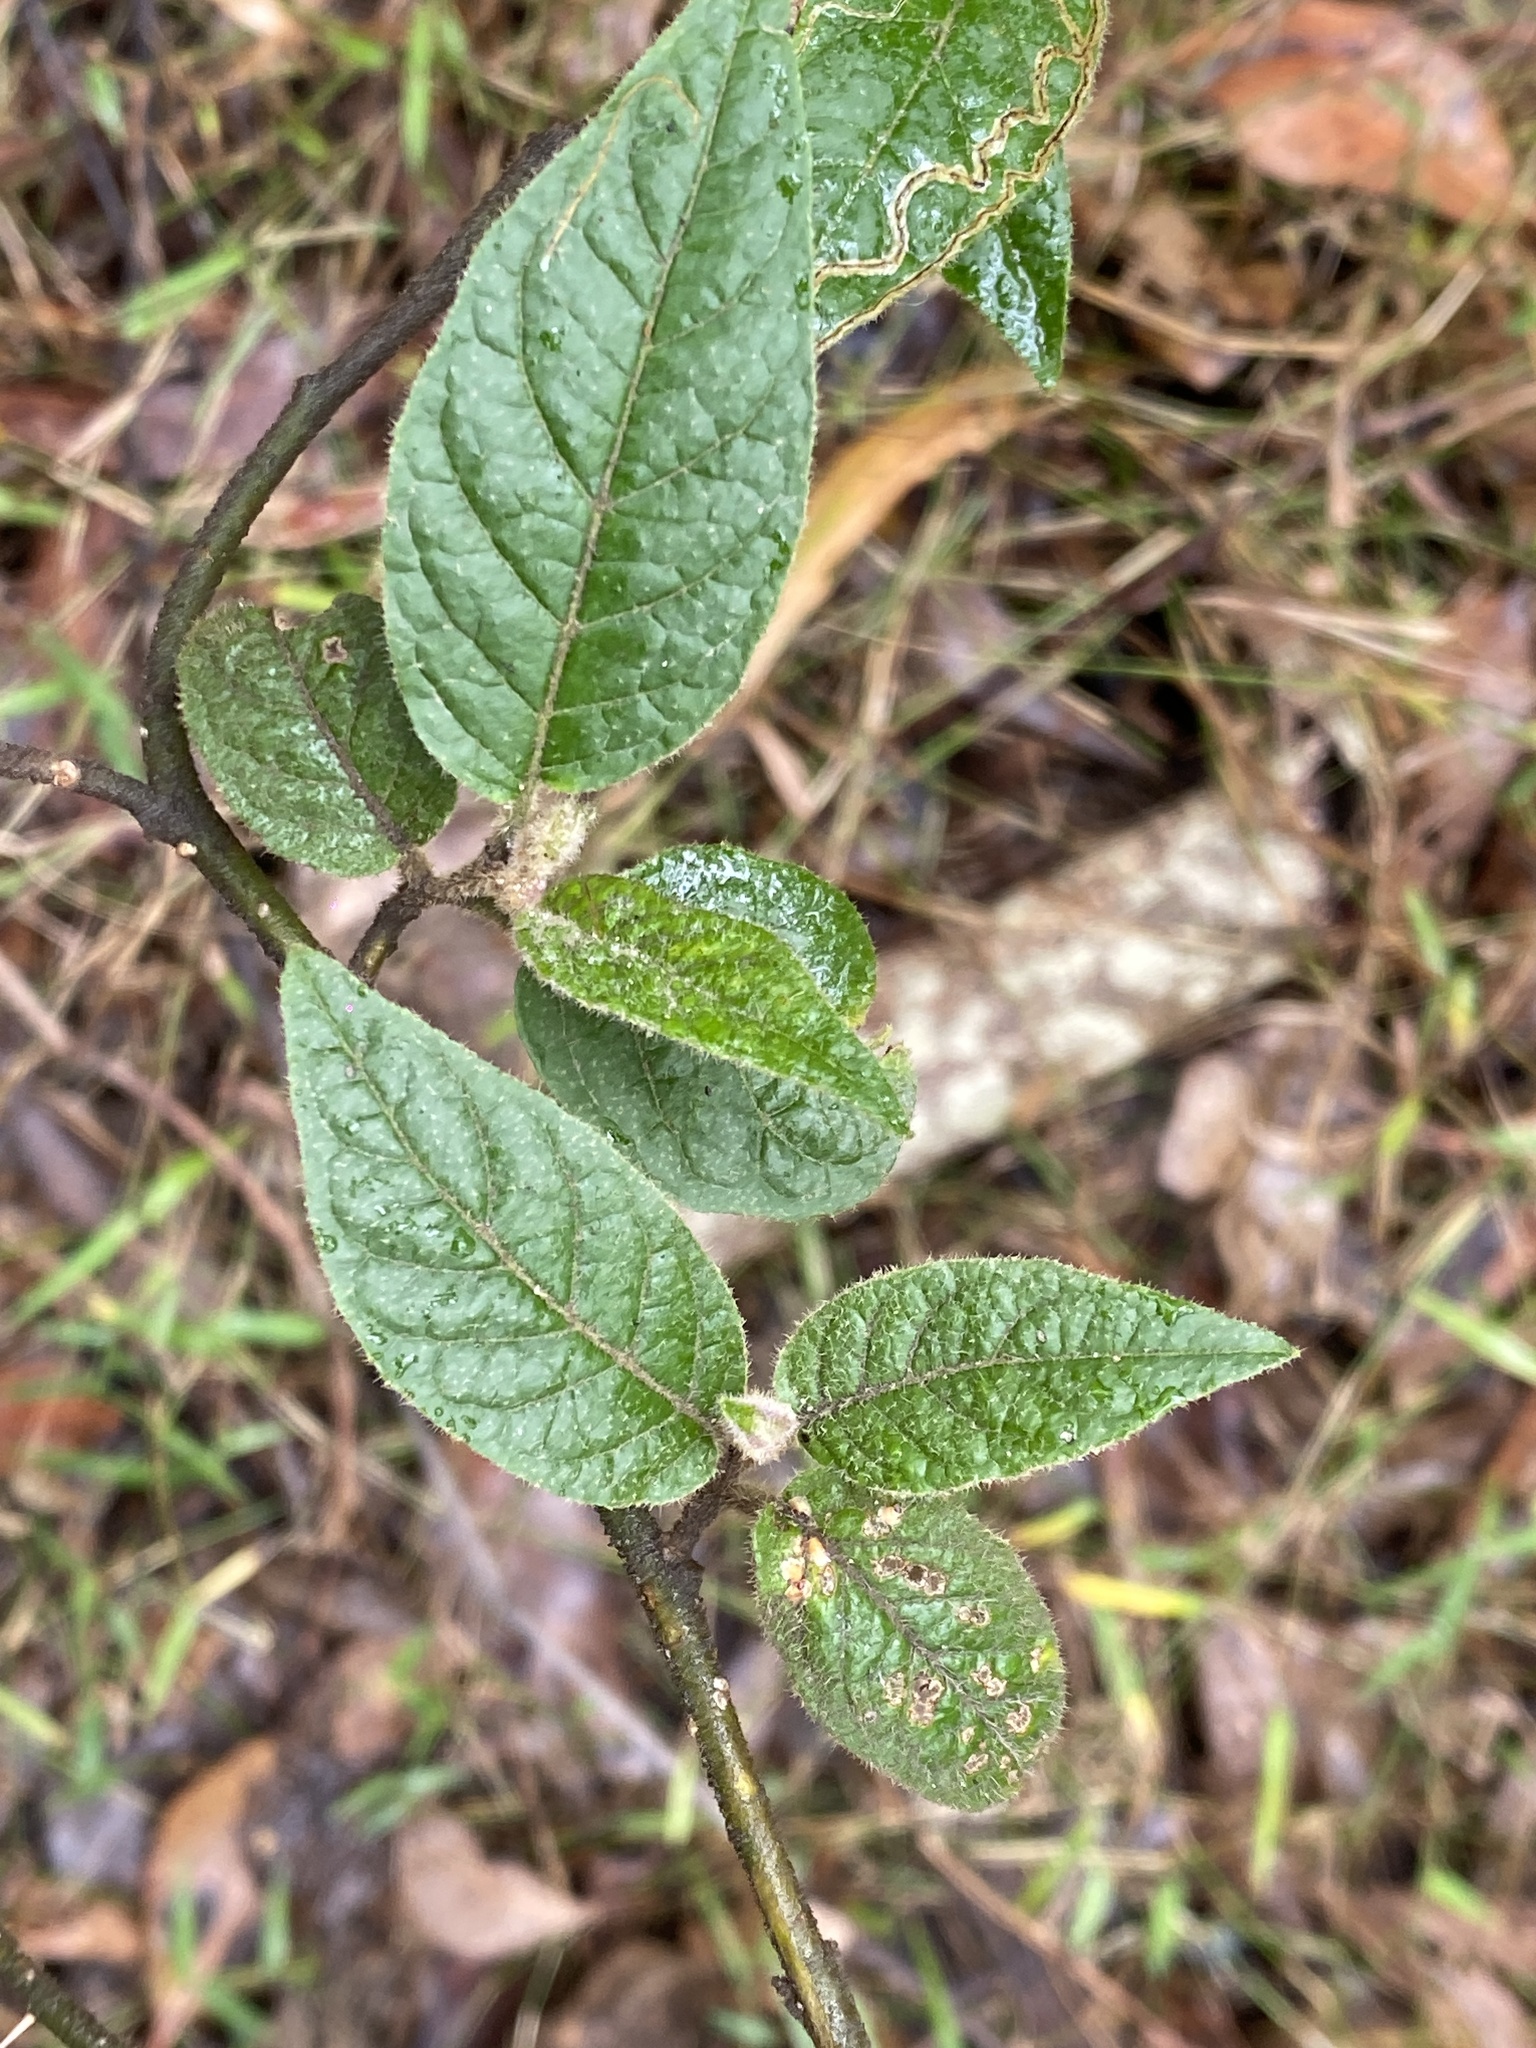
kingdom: Plantae
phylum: Tracheophyta
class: Magnoliopsida
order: Solanales
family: Solanaceae
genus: Solanum
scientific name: Solanum stelligerum
